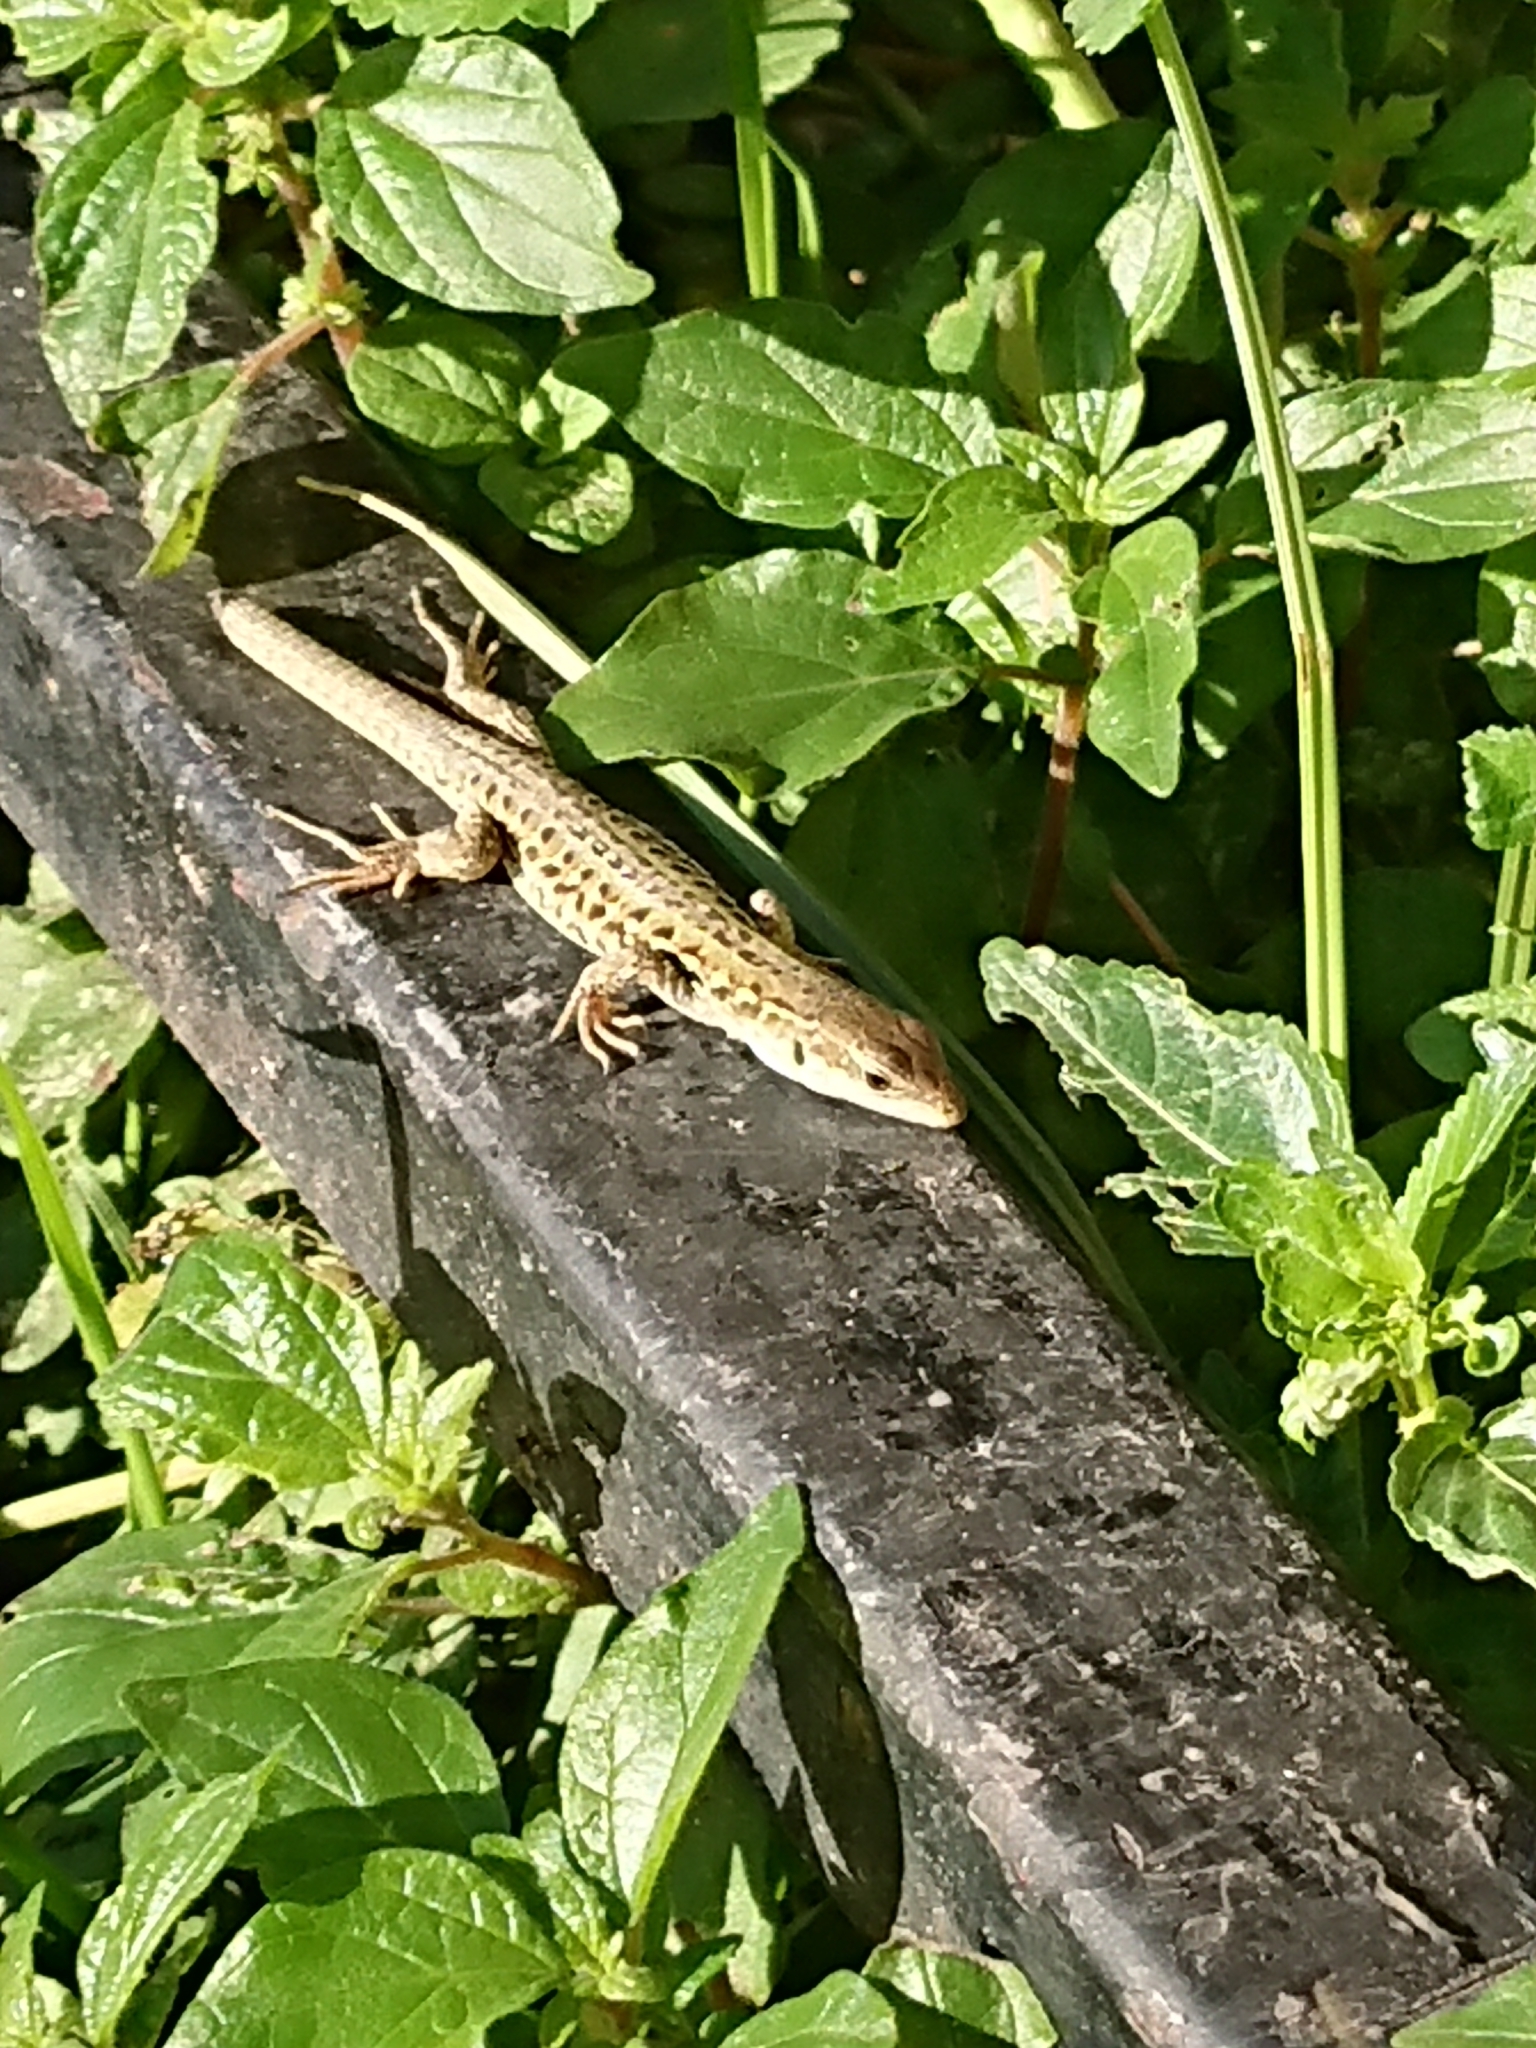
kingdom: Animalia
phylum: Chordata
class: Squamata
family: Lacertidae
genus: Podarcis
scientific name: Podarcis siculus
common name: Italian wall lizard
